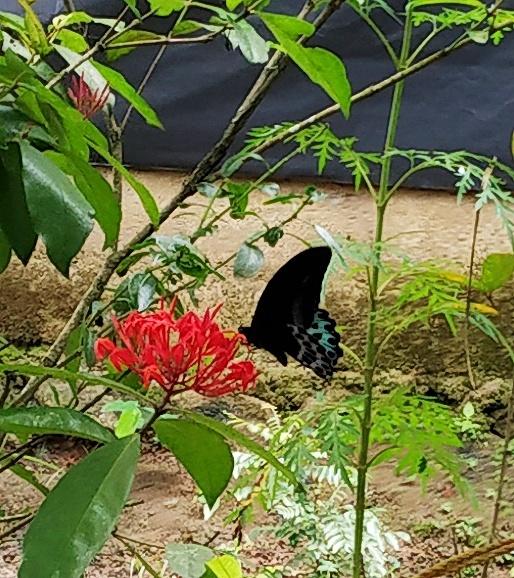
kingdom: Animalia
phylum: Arthropoda
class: Insecta
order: Lepidoptera
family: Papilionidae
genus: Papilio
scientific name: Papilio memnon
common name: Great mormon
